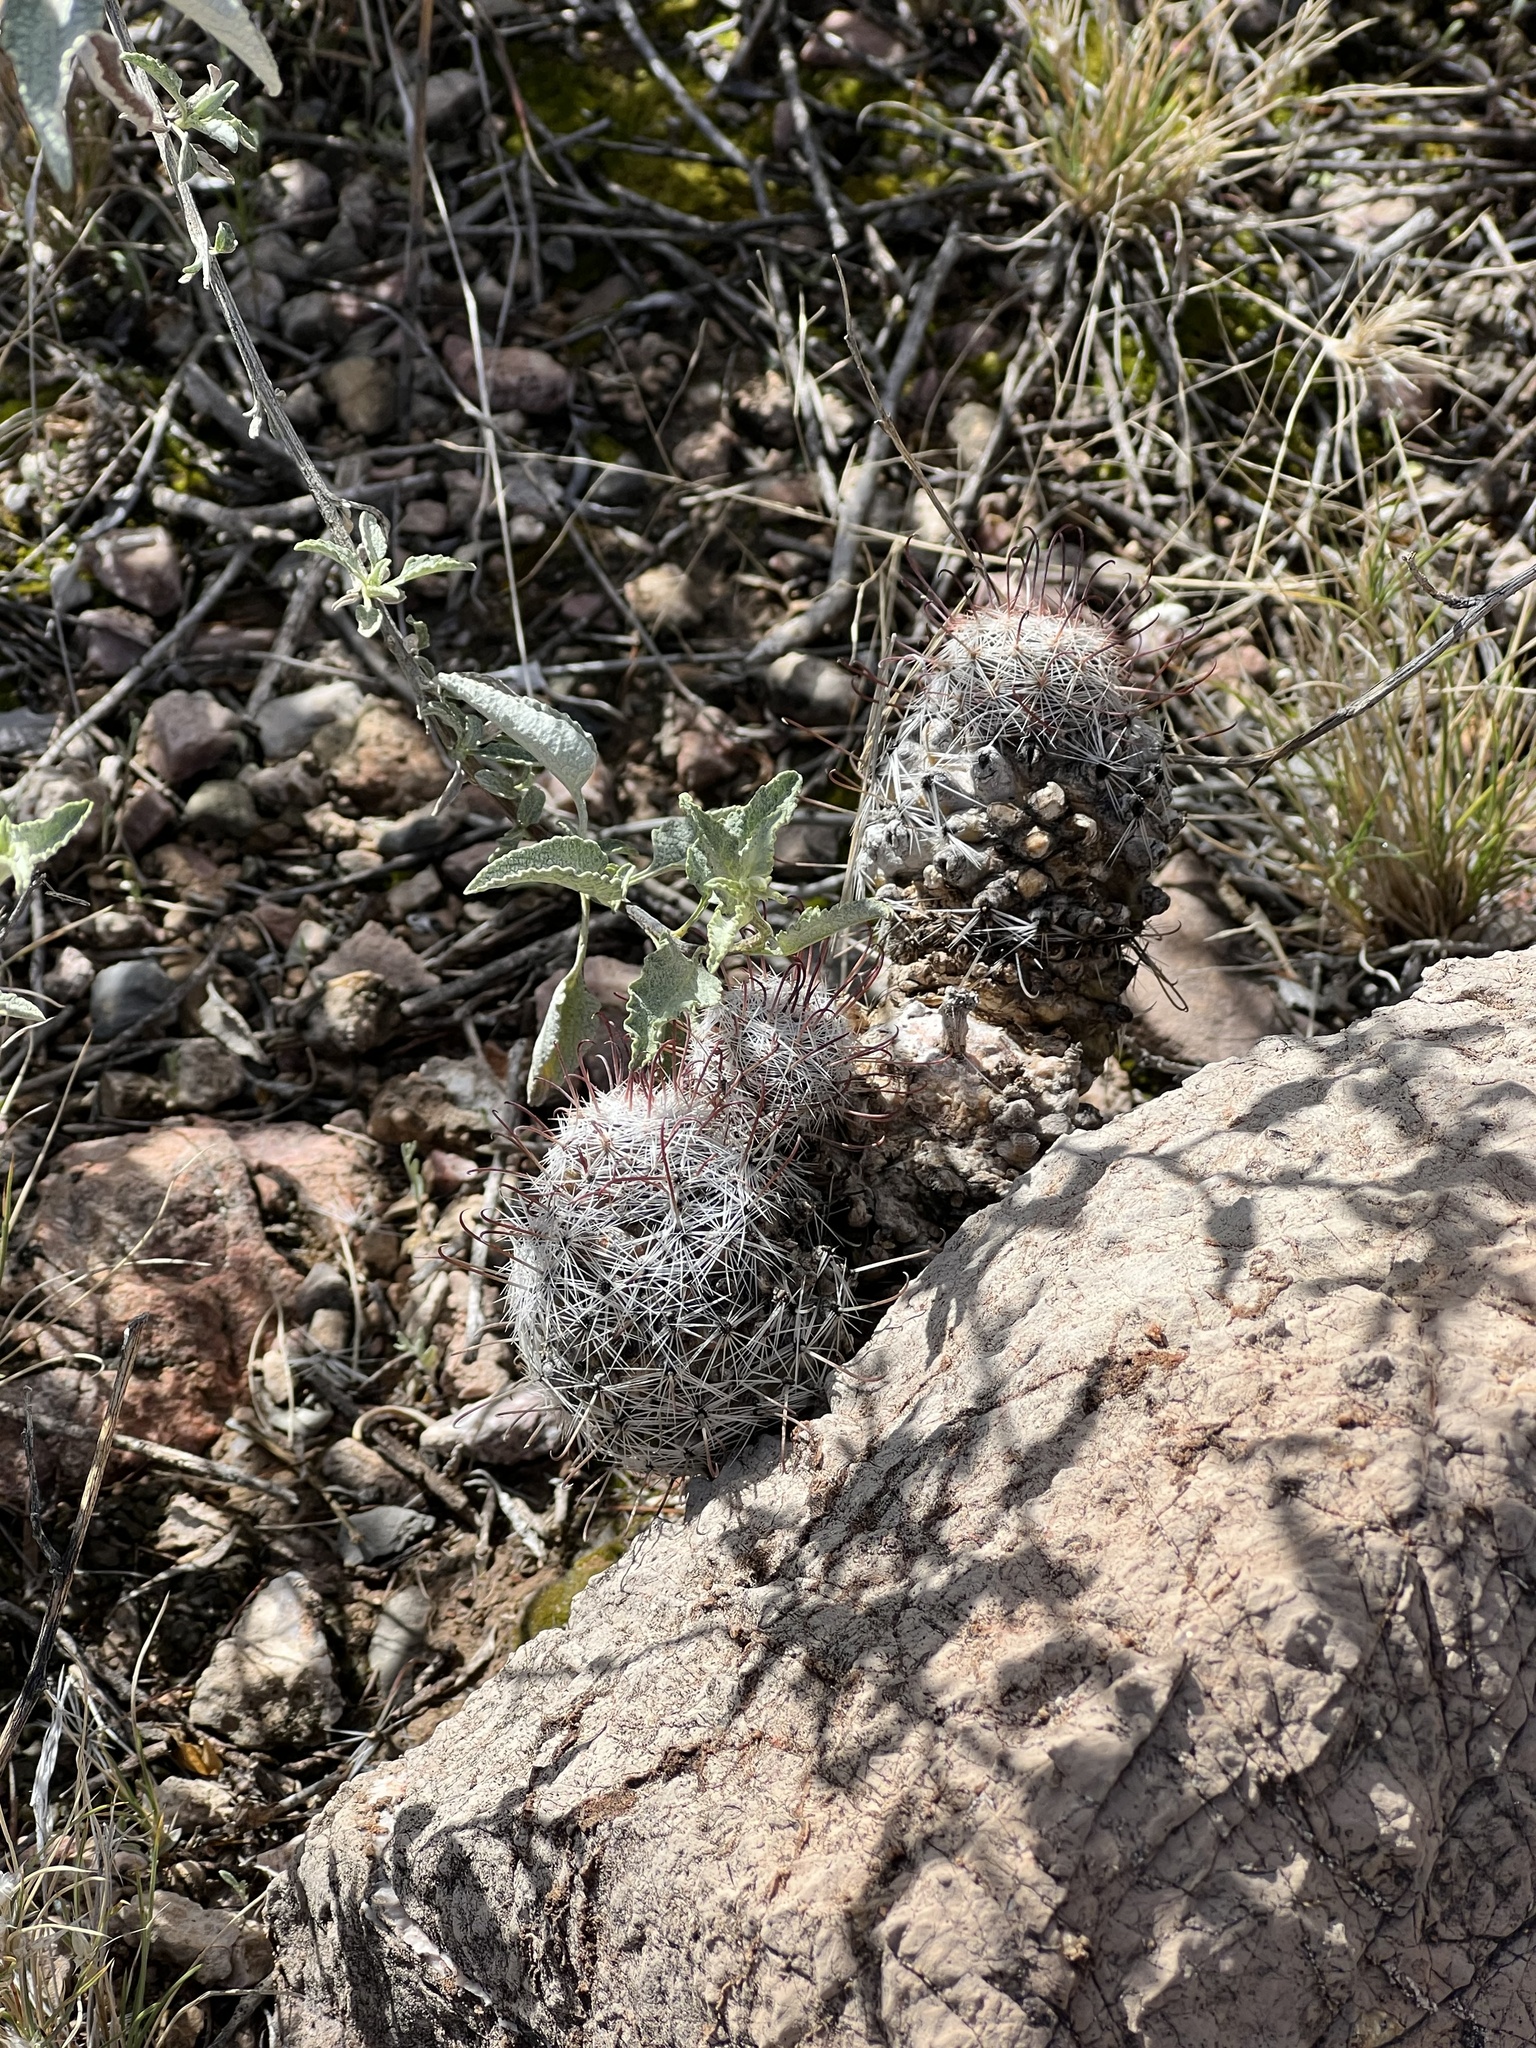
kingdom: Plantae
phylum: Tracheophyta
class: Magnoliopsida
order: Caryophyllales
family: Cactaceae
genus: Cochemiea
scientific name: Cochemiea grahamii
